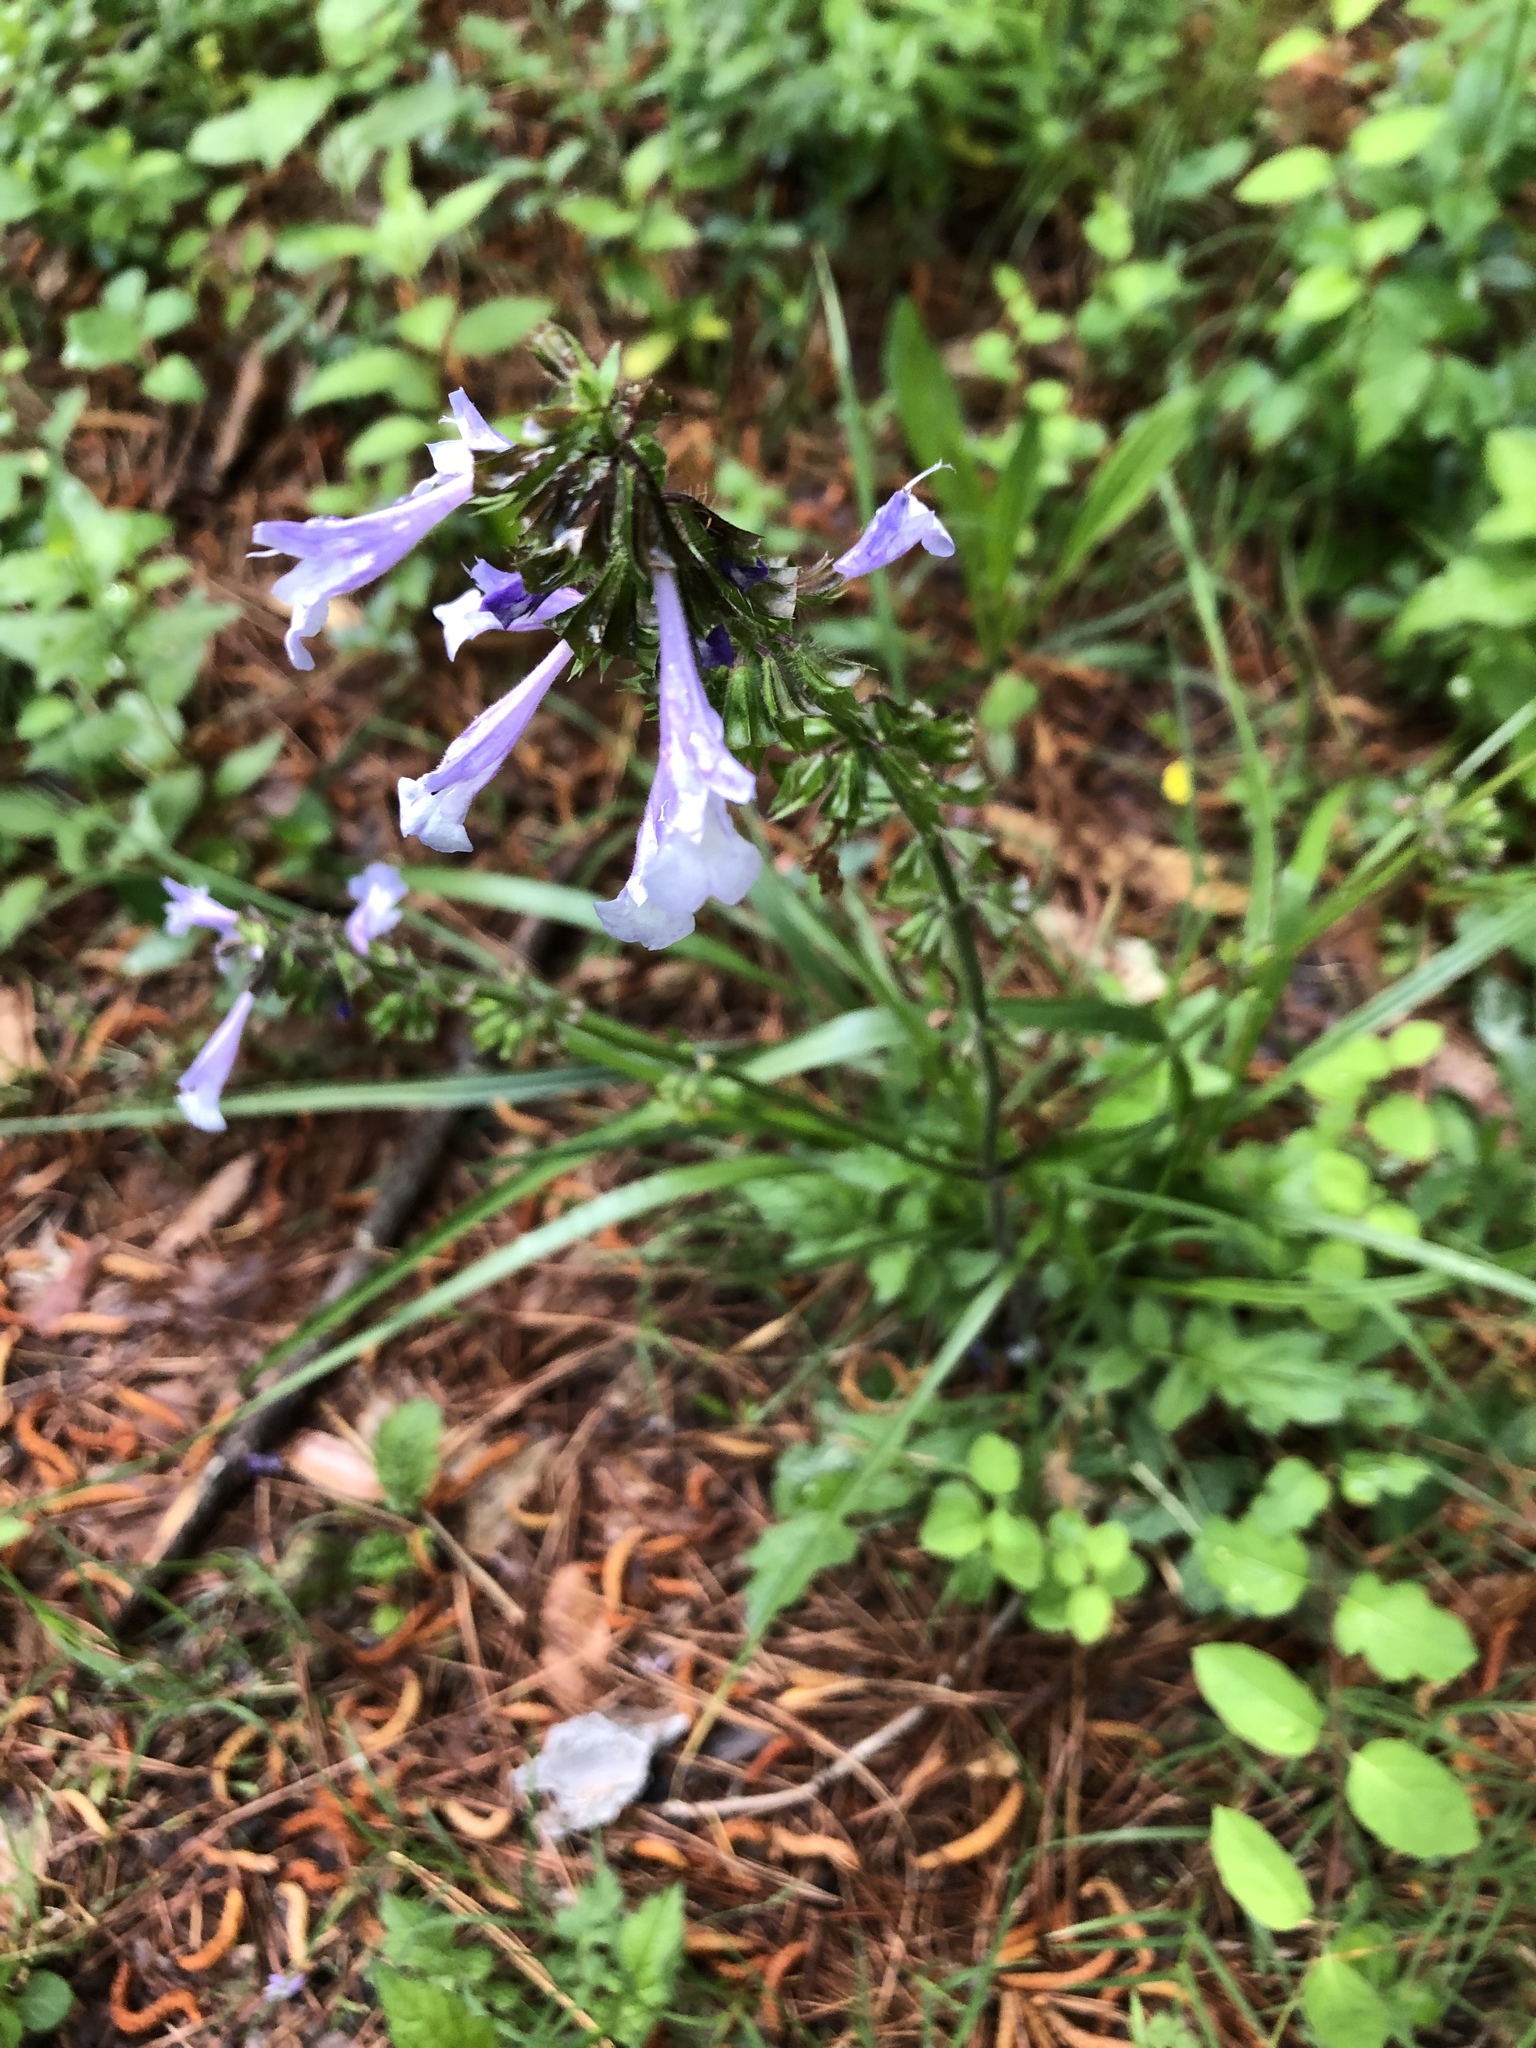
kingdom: Plantae
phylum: Tracheophyta
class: Magnoliopsida
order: Lamiales
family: Lamiaceae
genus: Salvia
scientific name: Salvia lyrata
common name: Cancerweed
